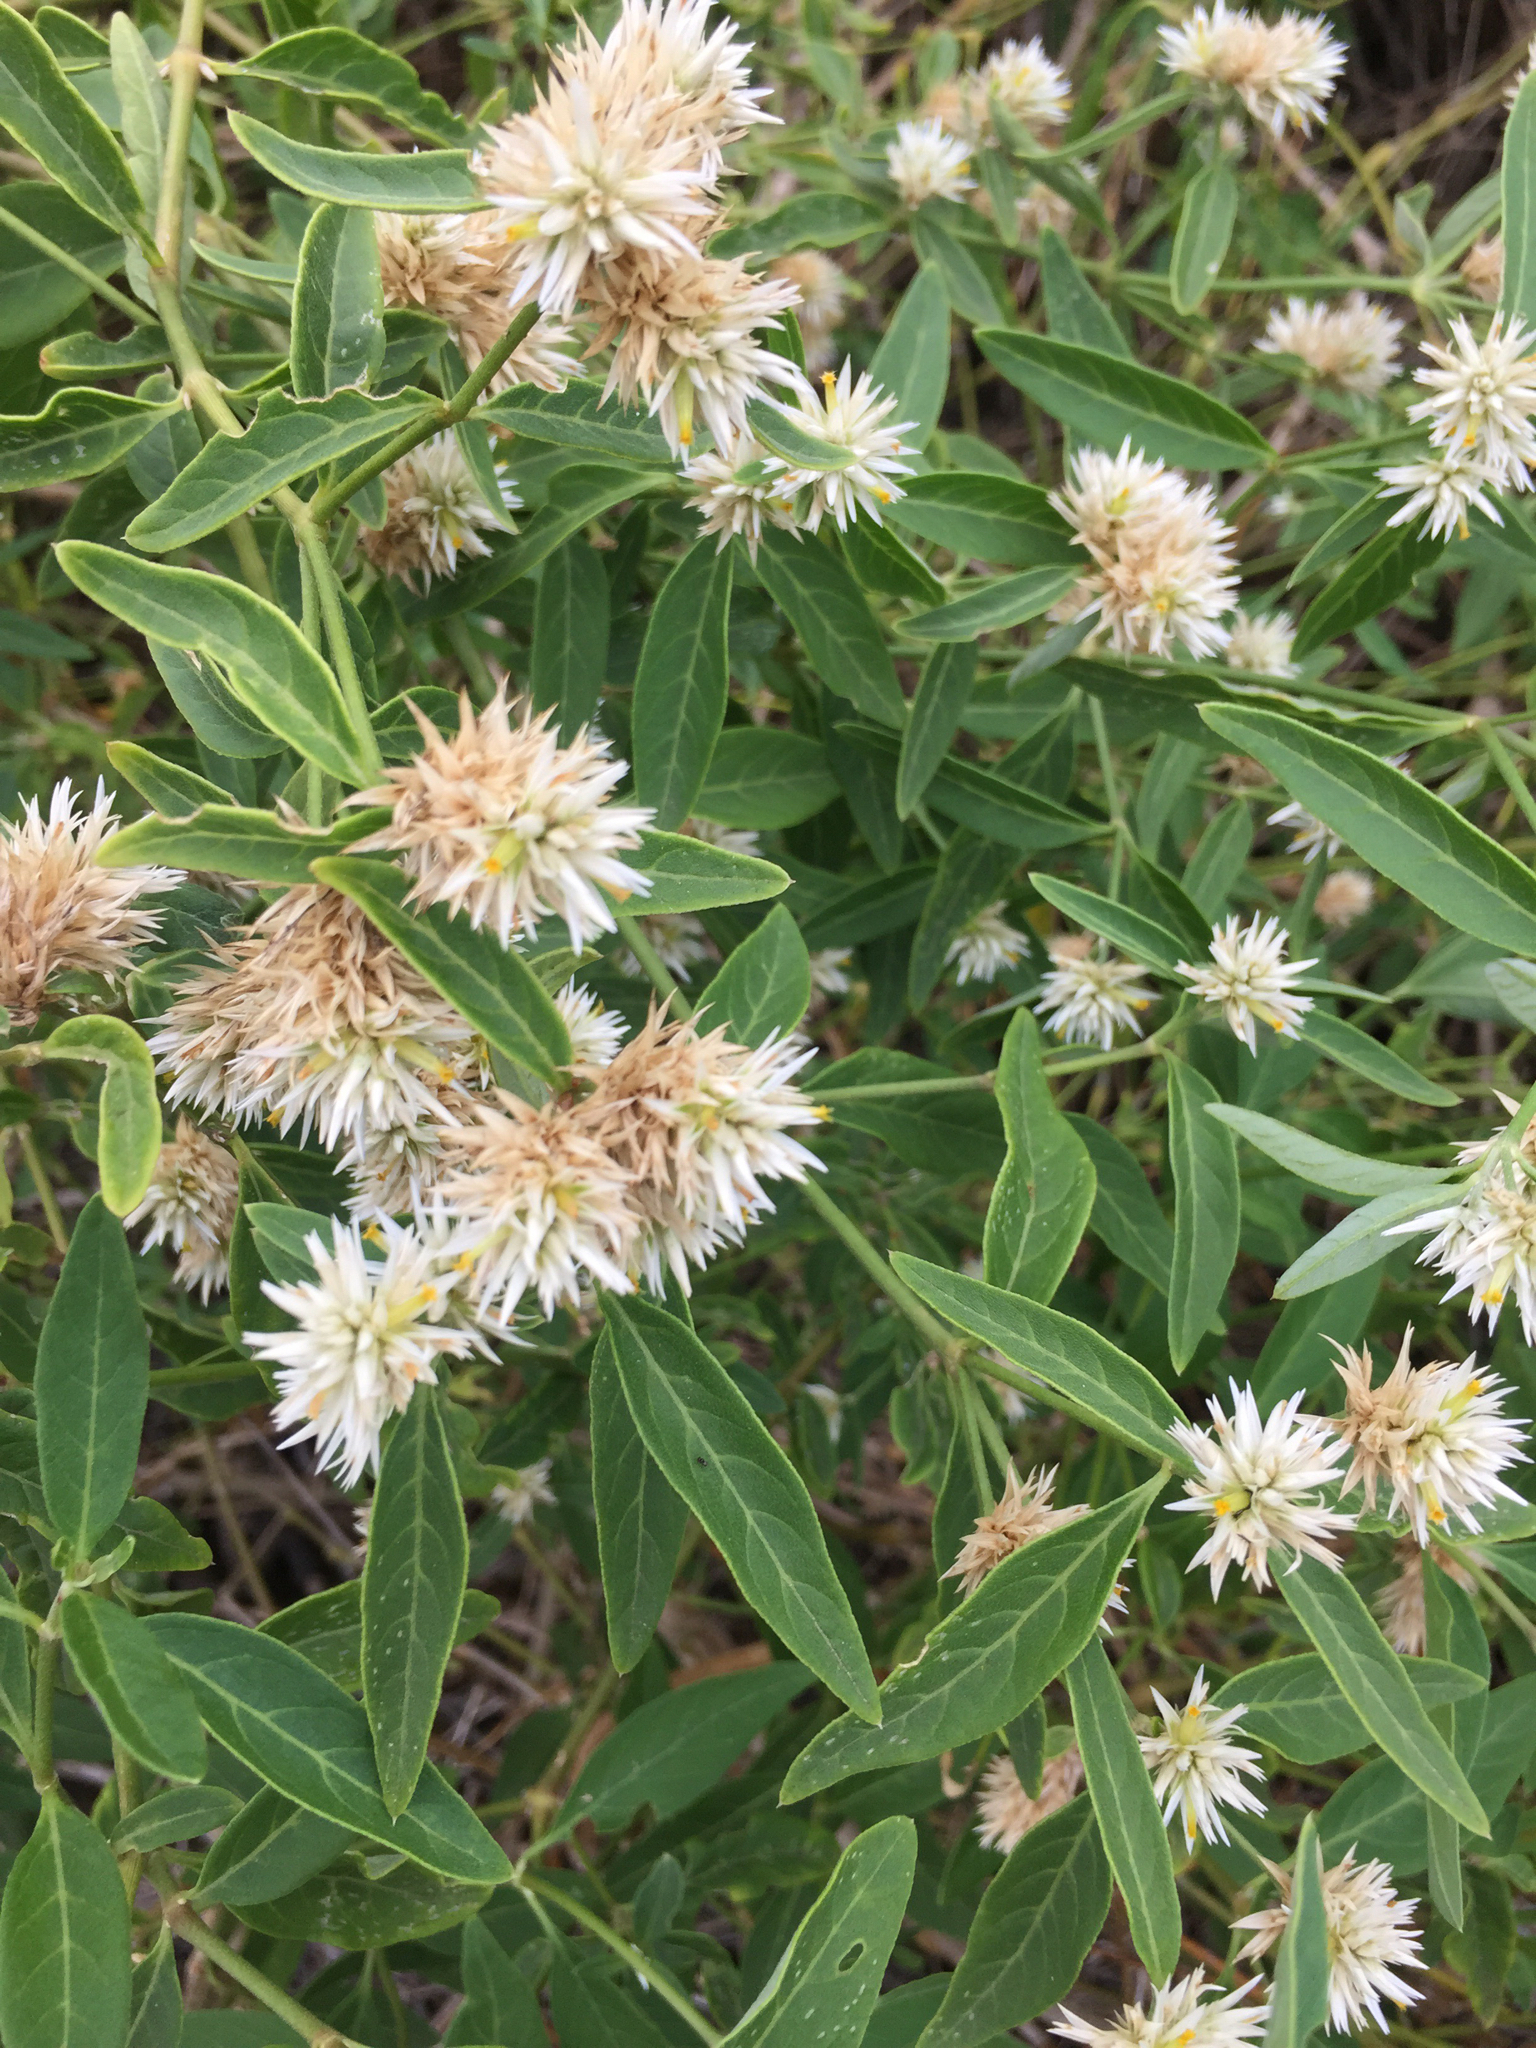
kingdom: Plantae
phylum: Tracheophyta
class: Magnoliopsida
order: Caryophyllales
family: Amaranthaceae
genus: Alternanthera
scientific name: Alternanthera echinocephala
